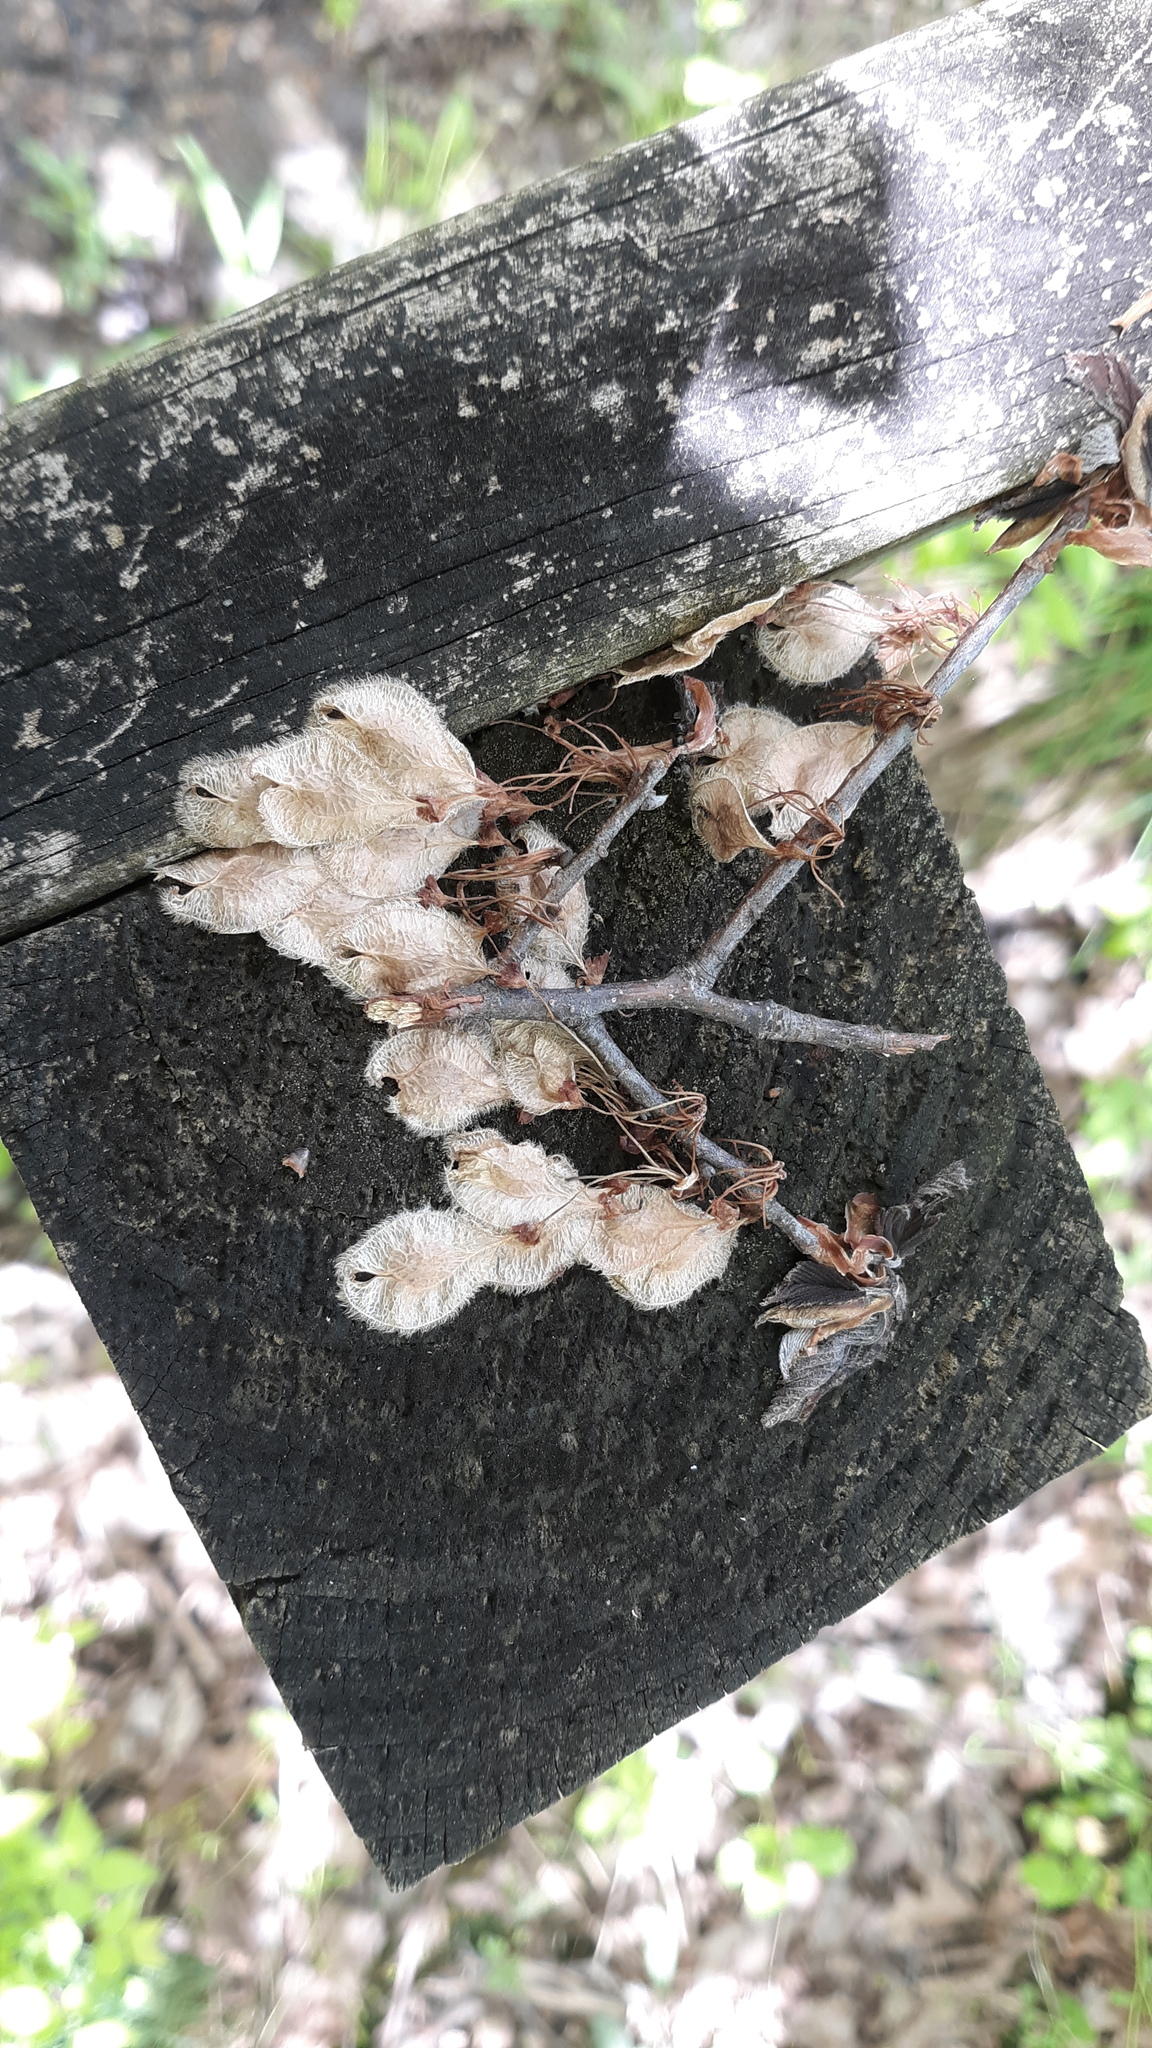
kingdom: Plantae
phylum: Tracheophyta
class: Magnoliopsida
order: Rosales
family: Ulmaceae
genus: Ulmus
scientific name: Ulmus americana
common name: American elm
